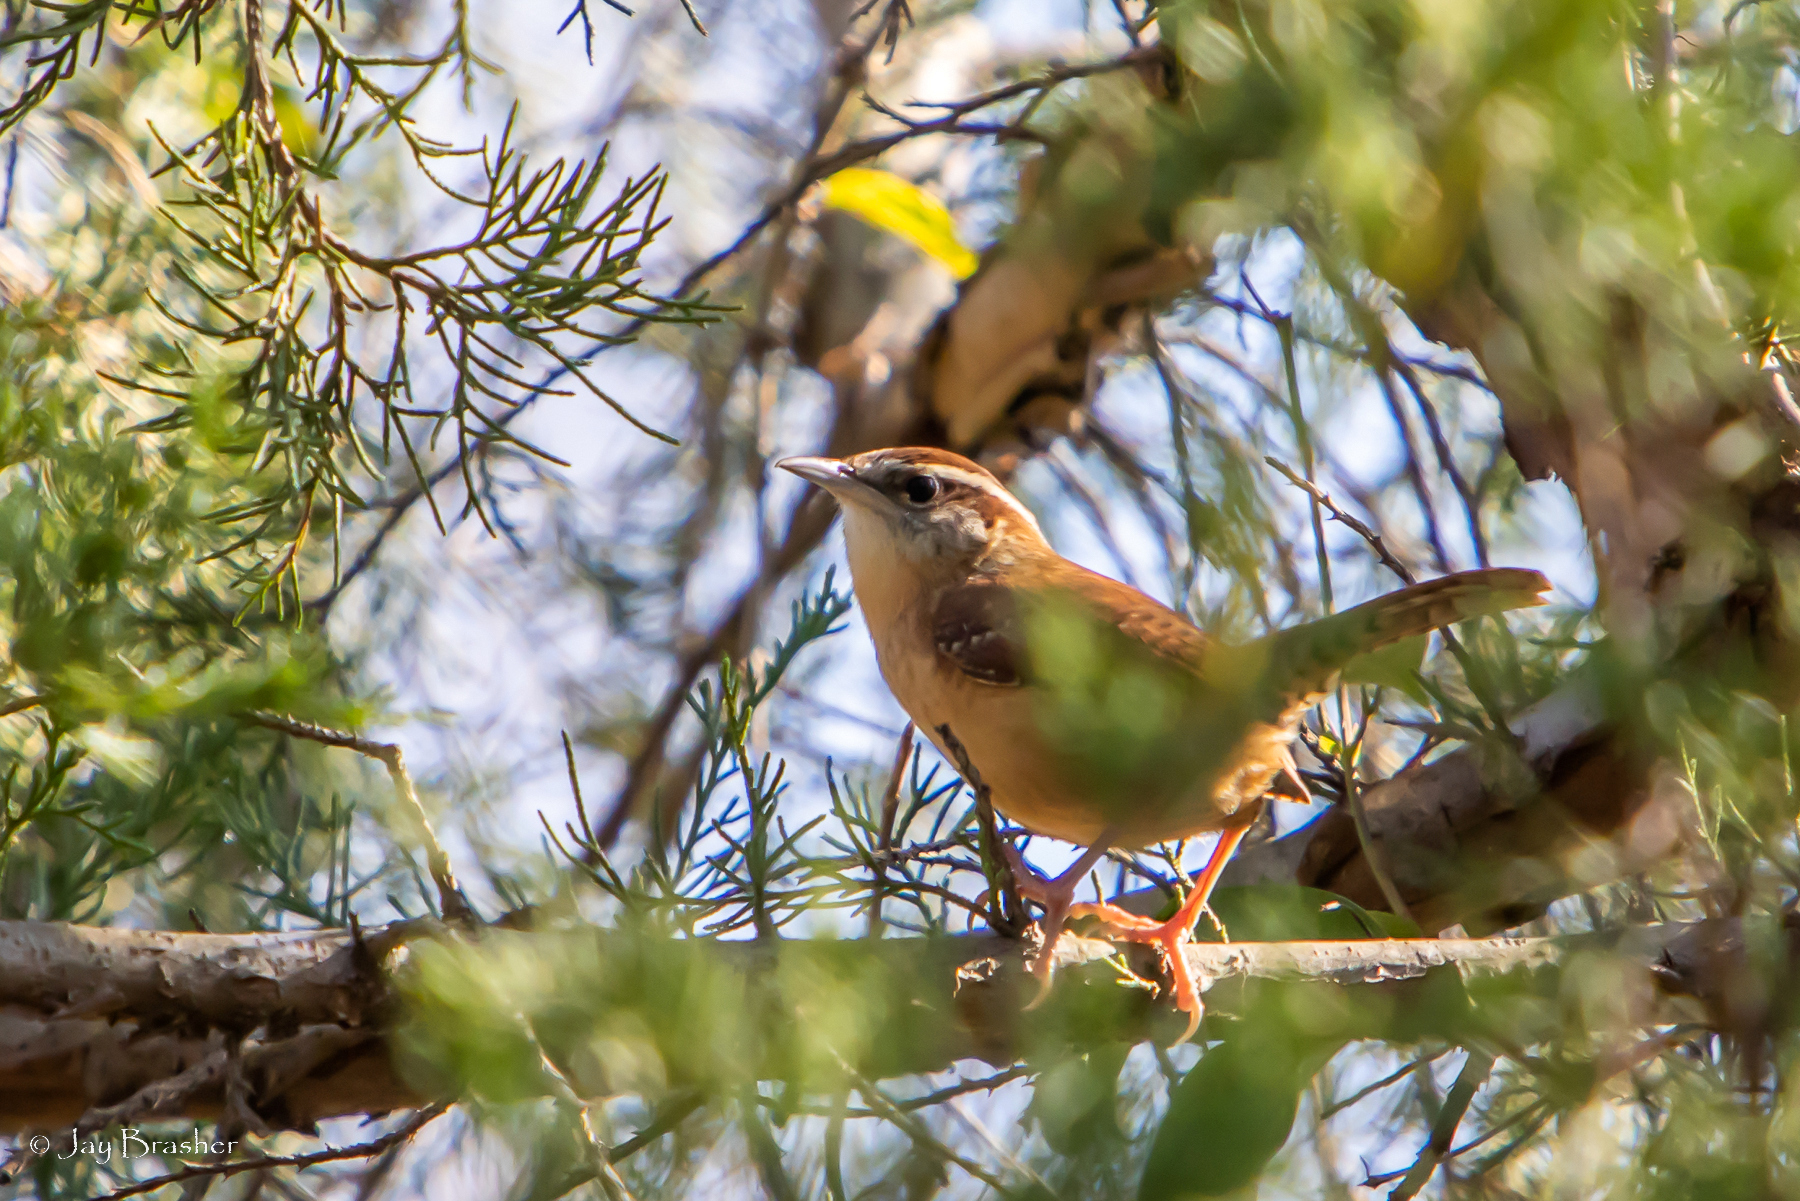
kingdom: Animalia
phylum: Chordata
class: Aves
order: Passeriformes
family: Troglodytidae
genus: Thryothorus
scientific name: Thryothorus ludovicianus
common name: Carolina wren
